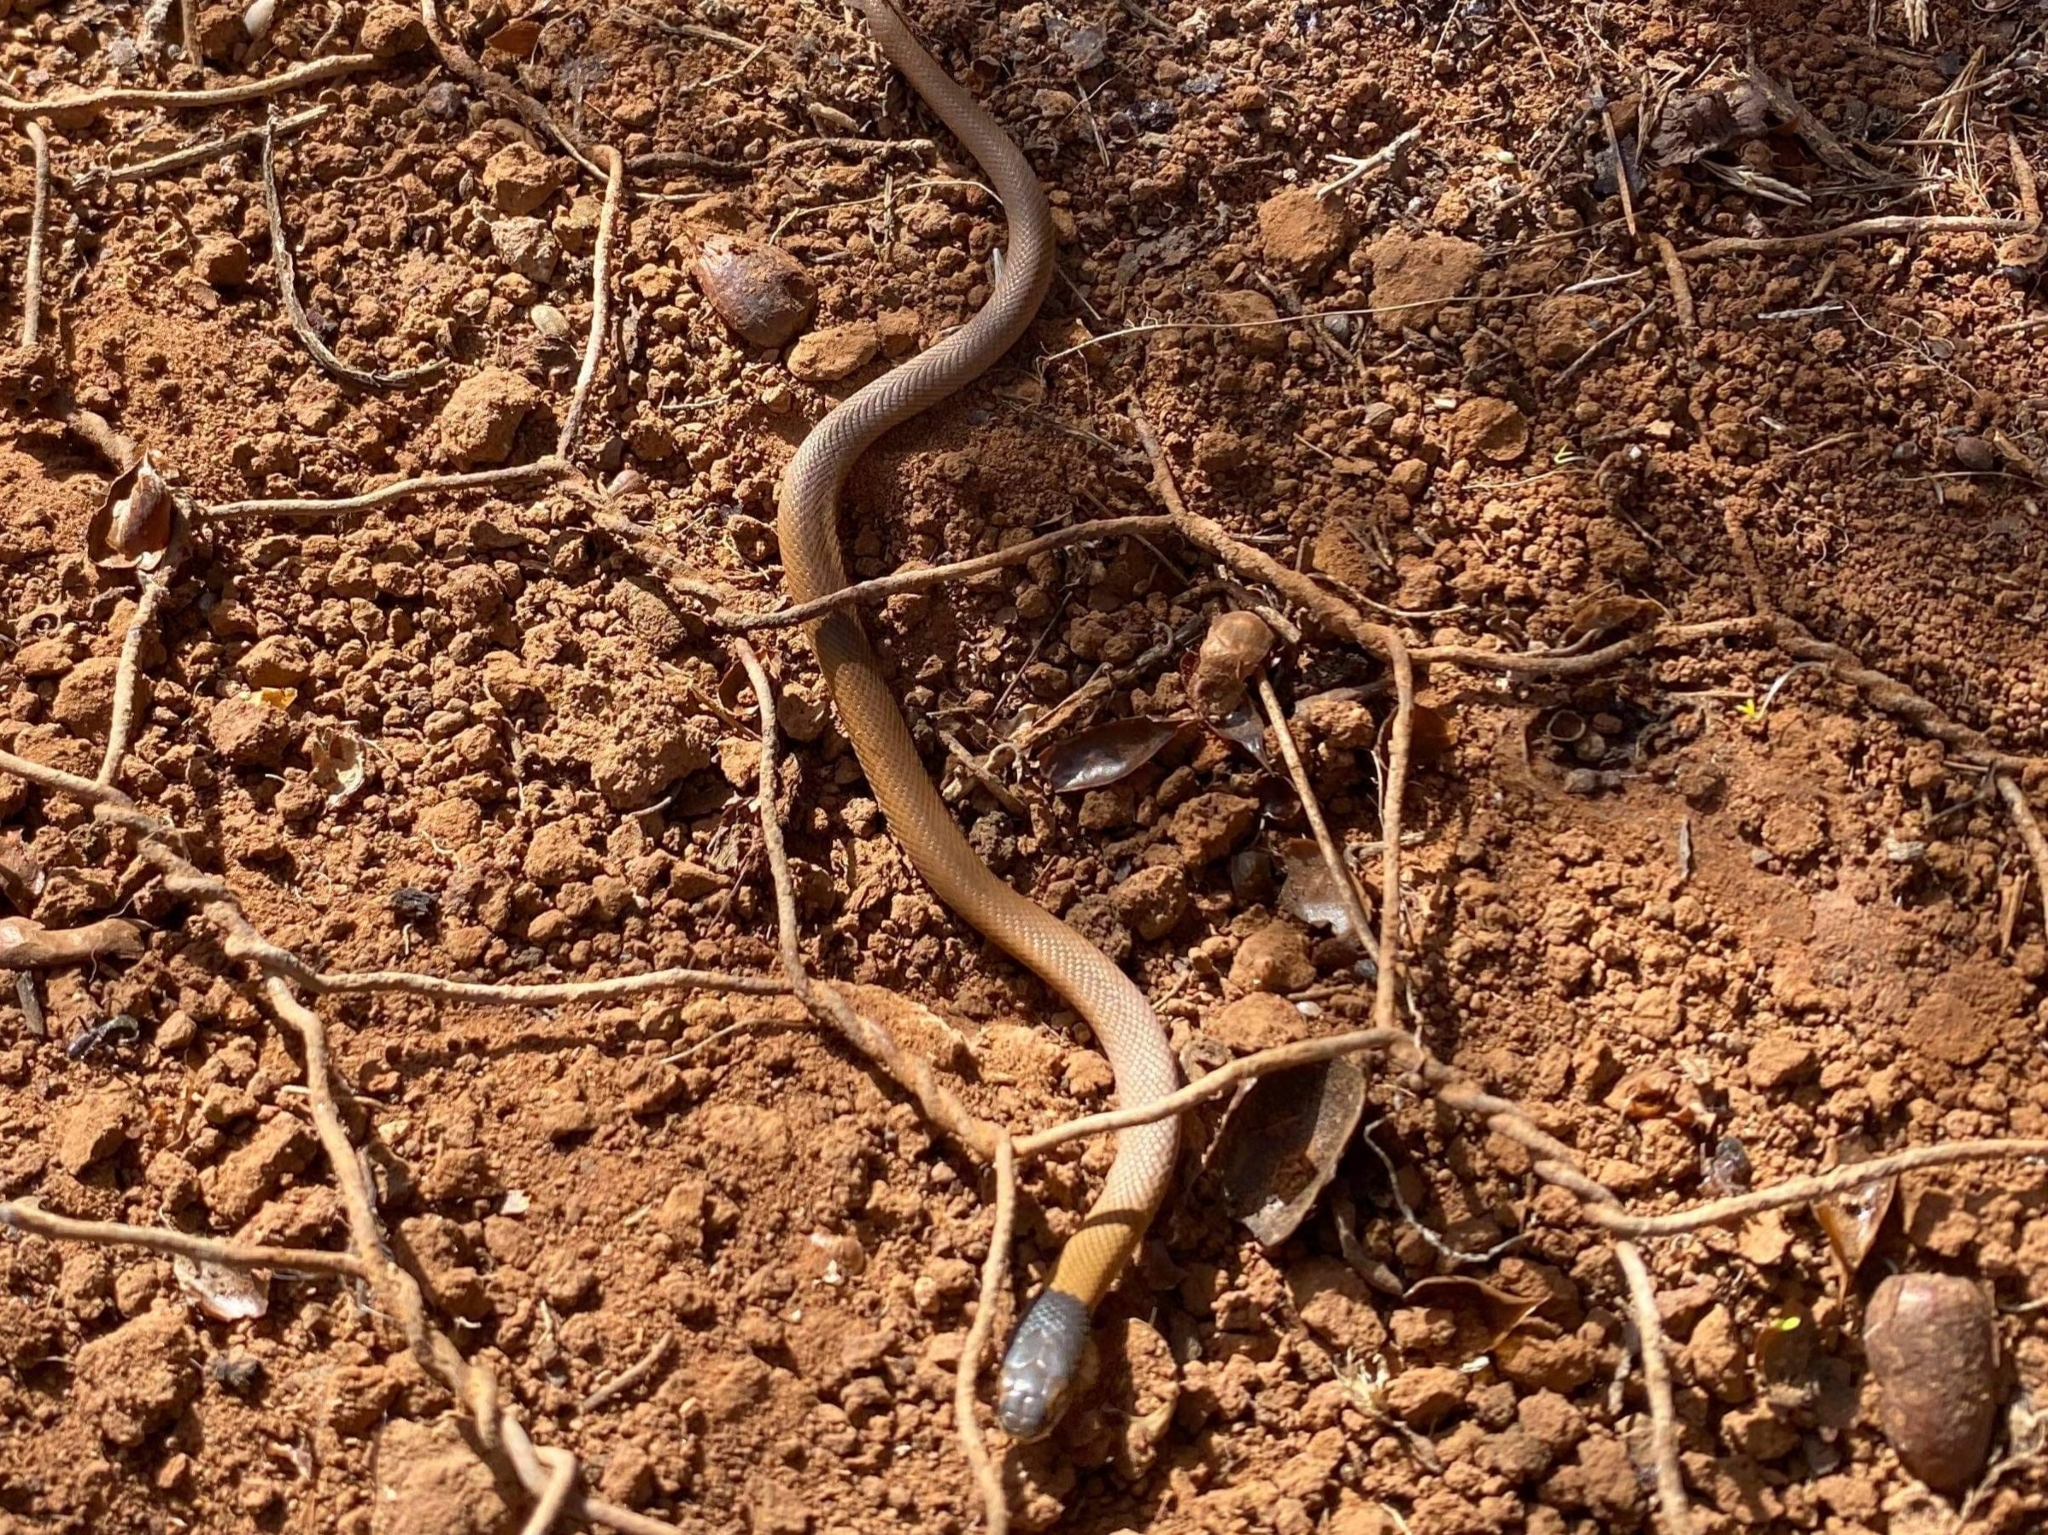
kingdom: Animalia
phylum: Chordata
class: Squamata
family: Elapidae
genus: Suta
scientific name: Suta suta
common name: Curl snake
